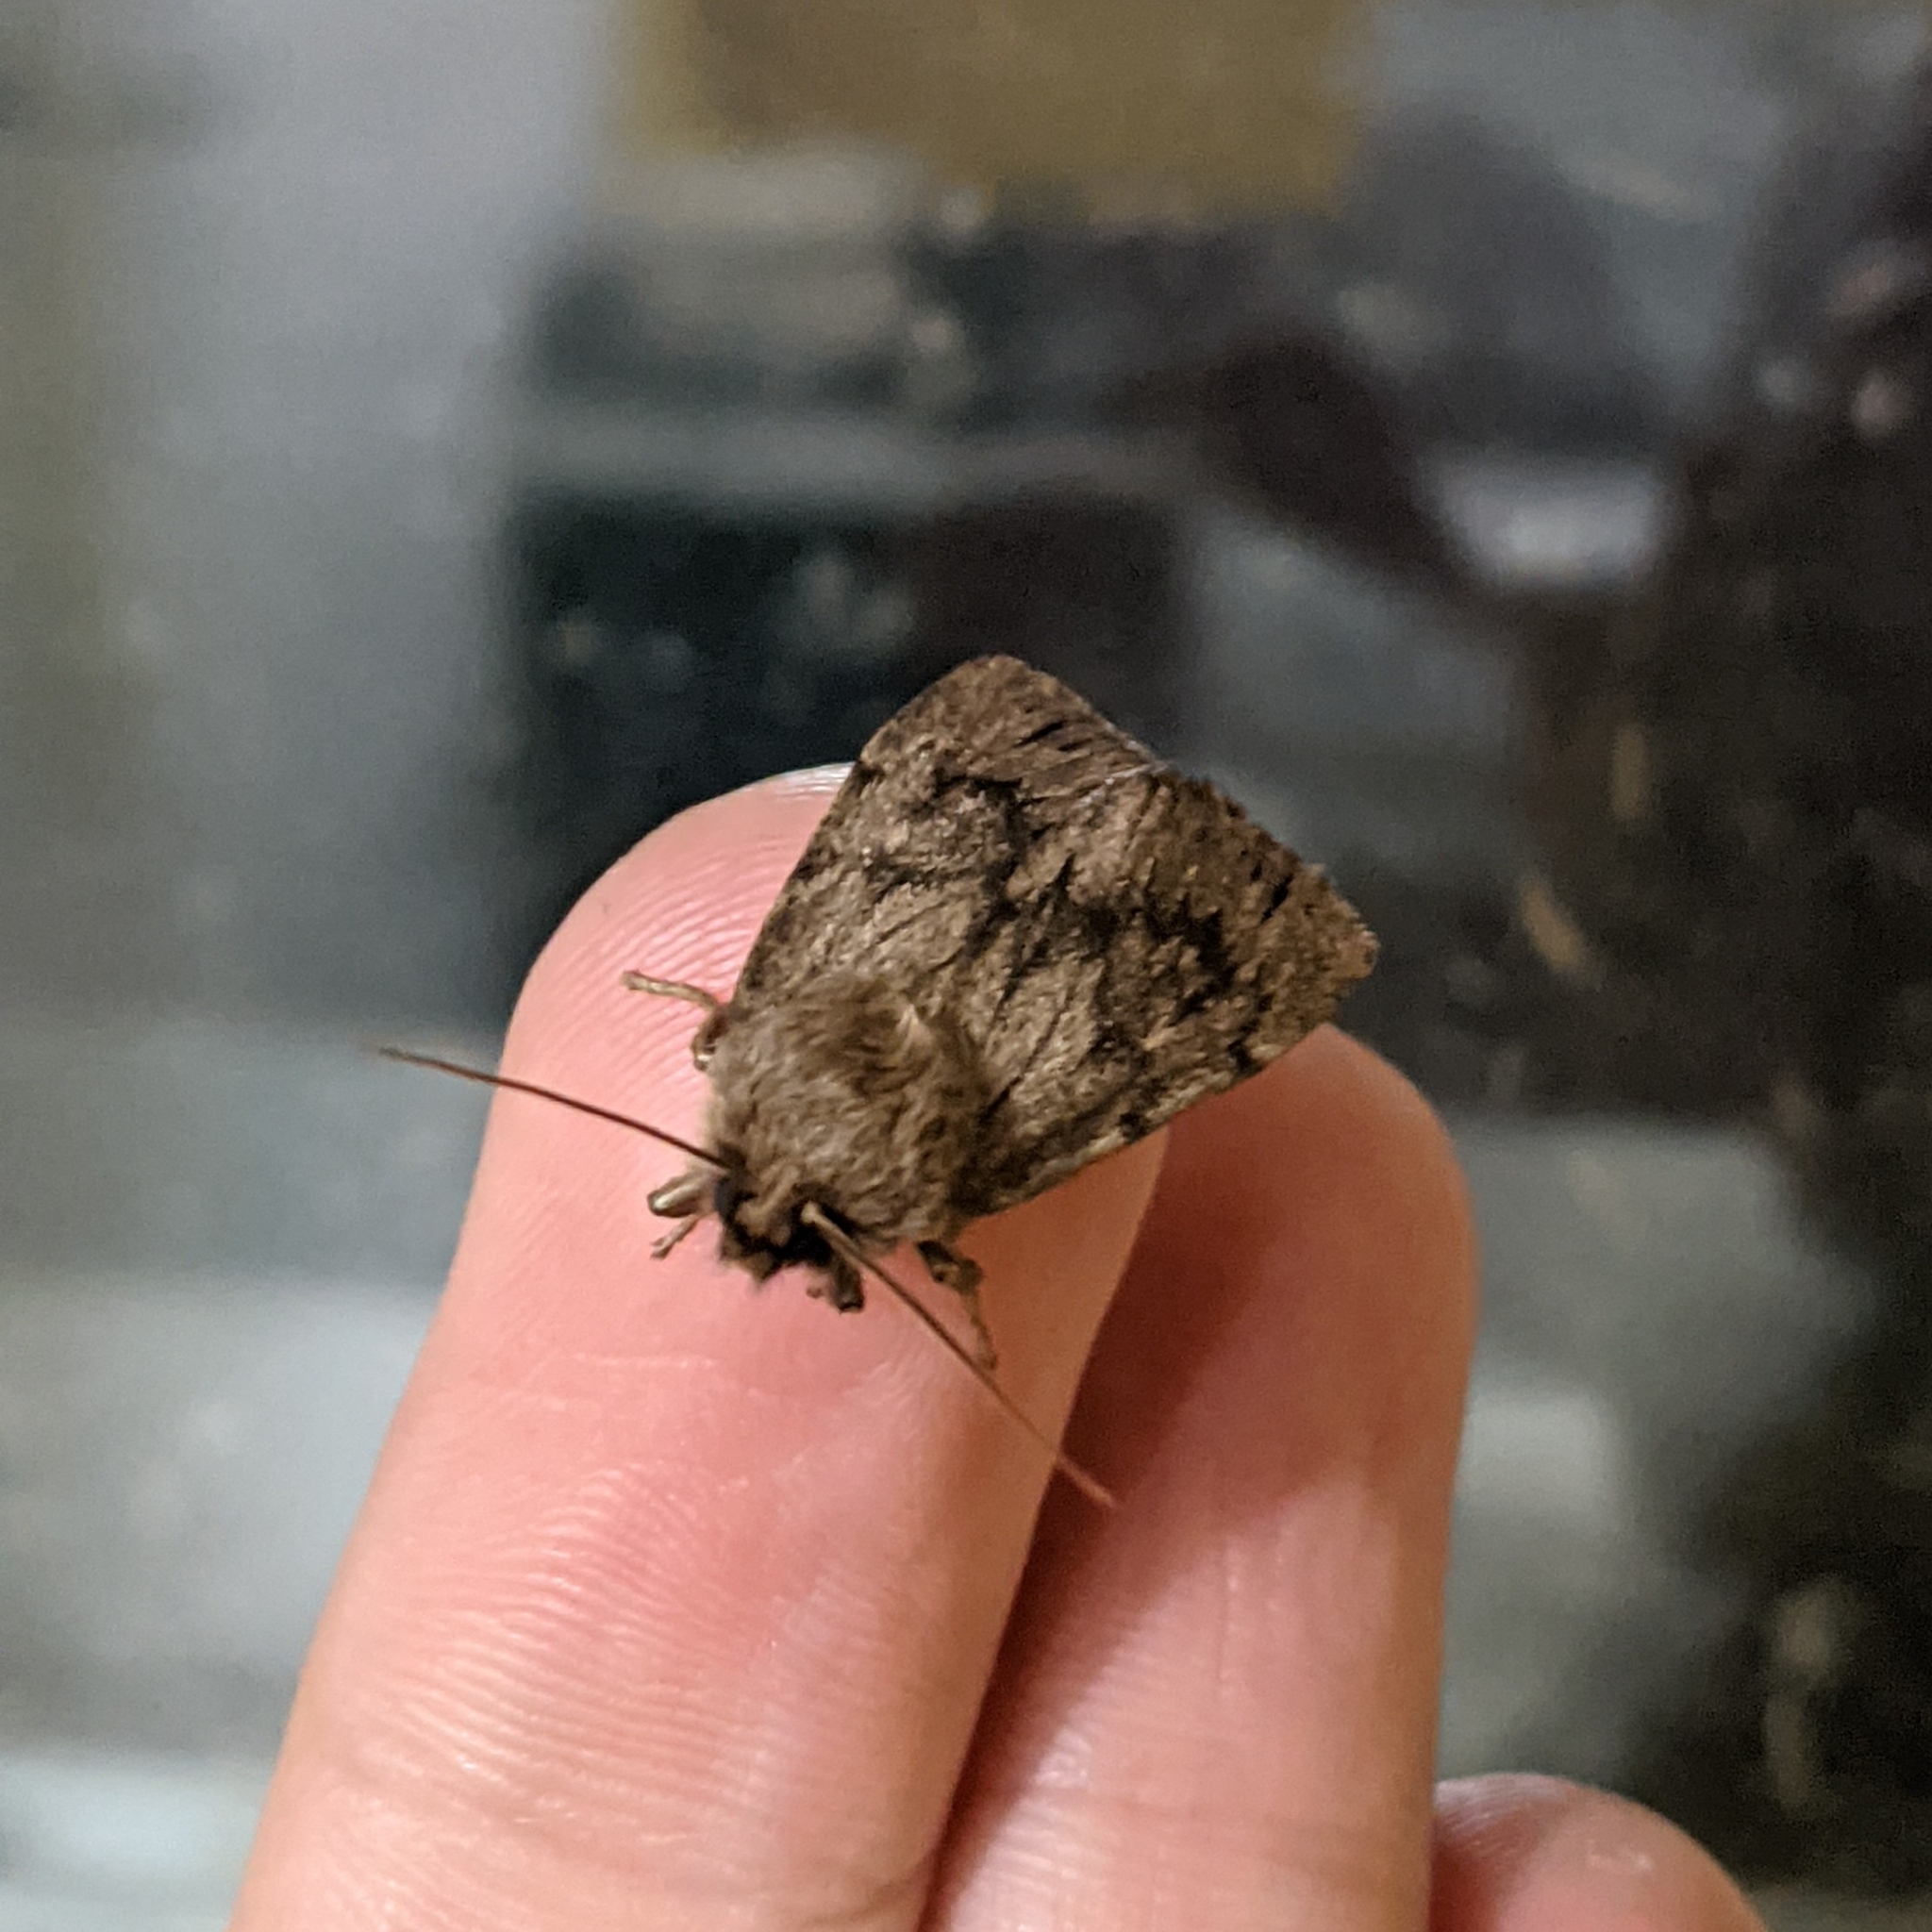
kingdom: Animalia
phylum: Arthropoda
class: Insecta
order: Lepidoptera
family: Noctuidae
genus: Ufeus
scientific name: Ufeus satyricus
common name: Brown satyr moth
